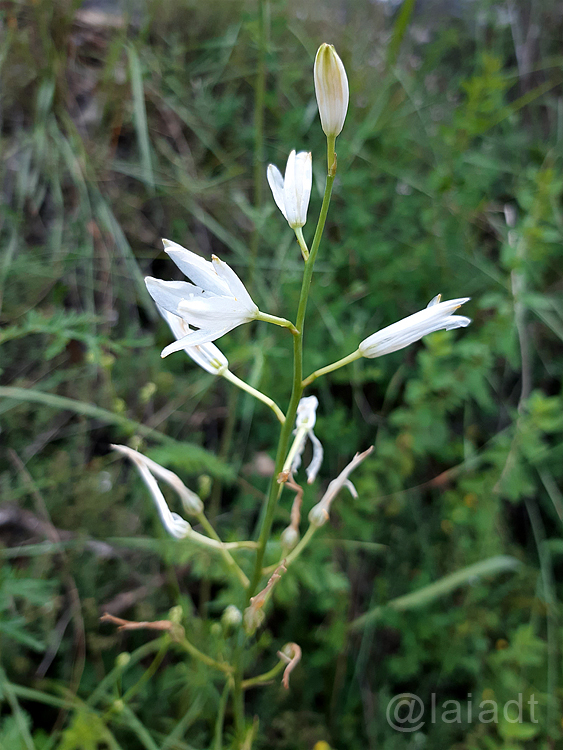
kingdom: Plantae
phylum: Tracheophyta
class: Liliopsida
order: Asparagales
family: Asparagaceae
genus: Anthericum
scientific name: Anthericum liliago
